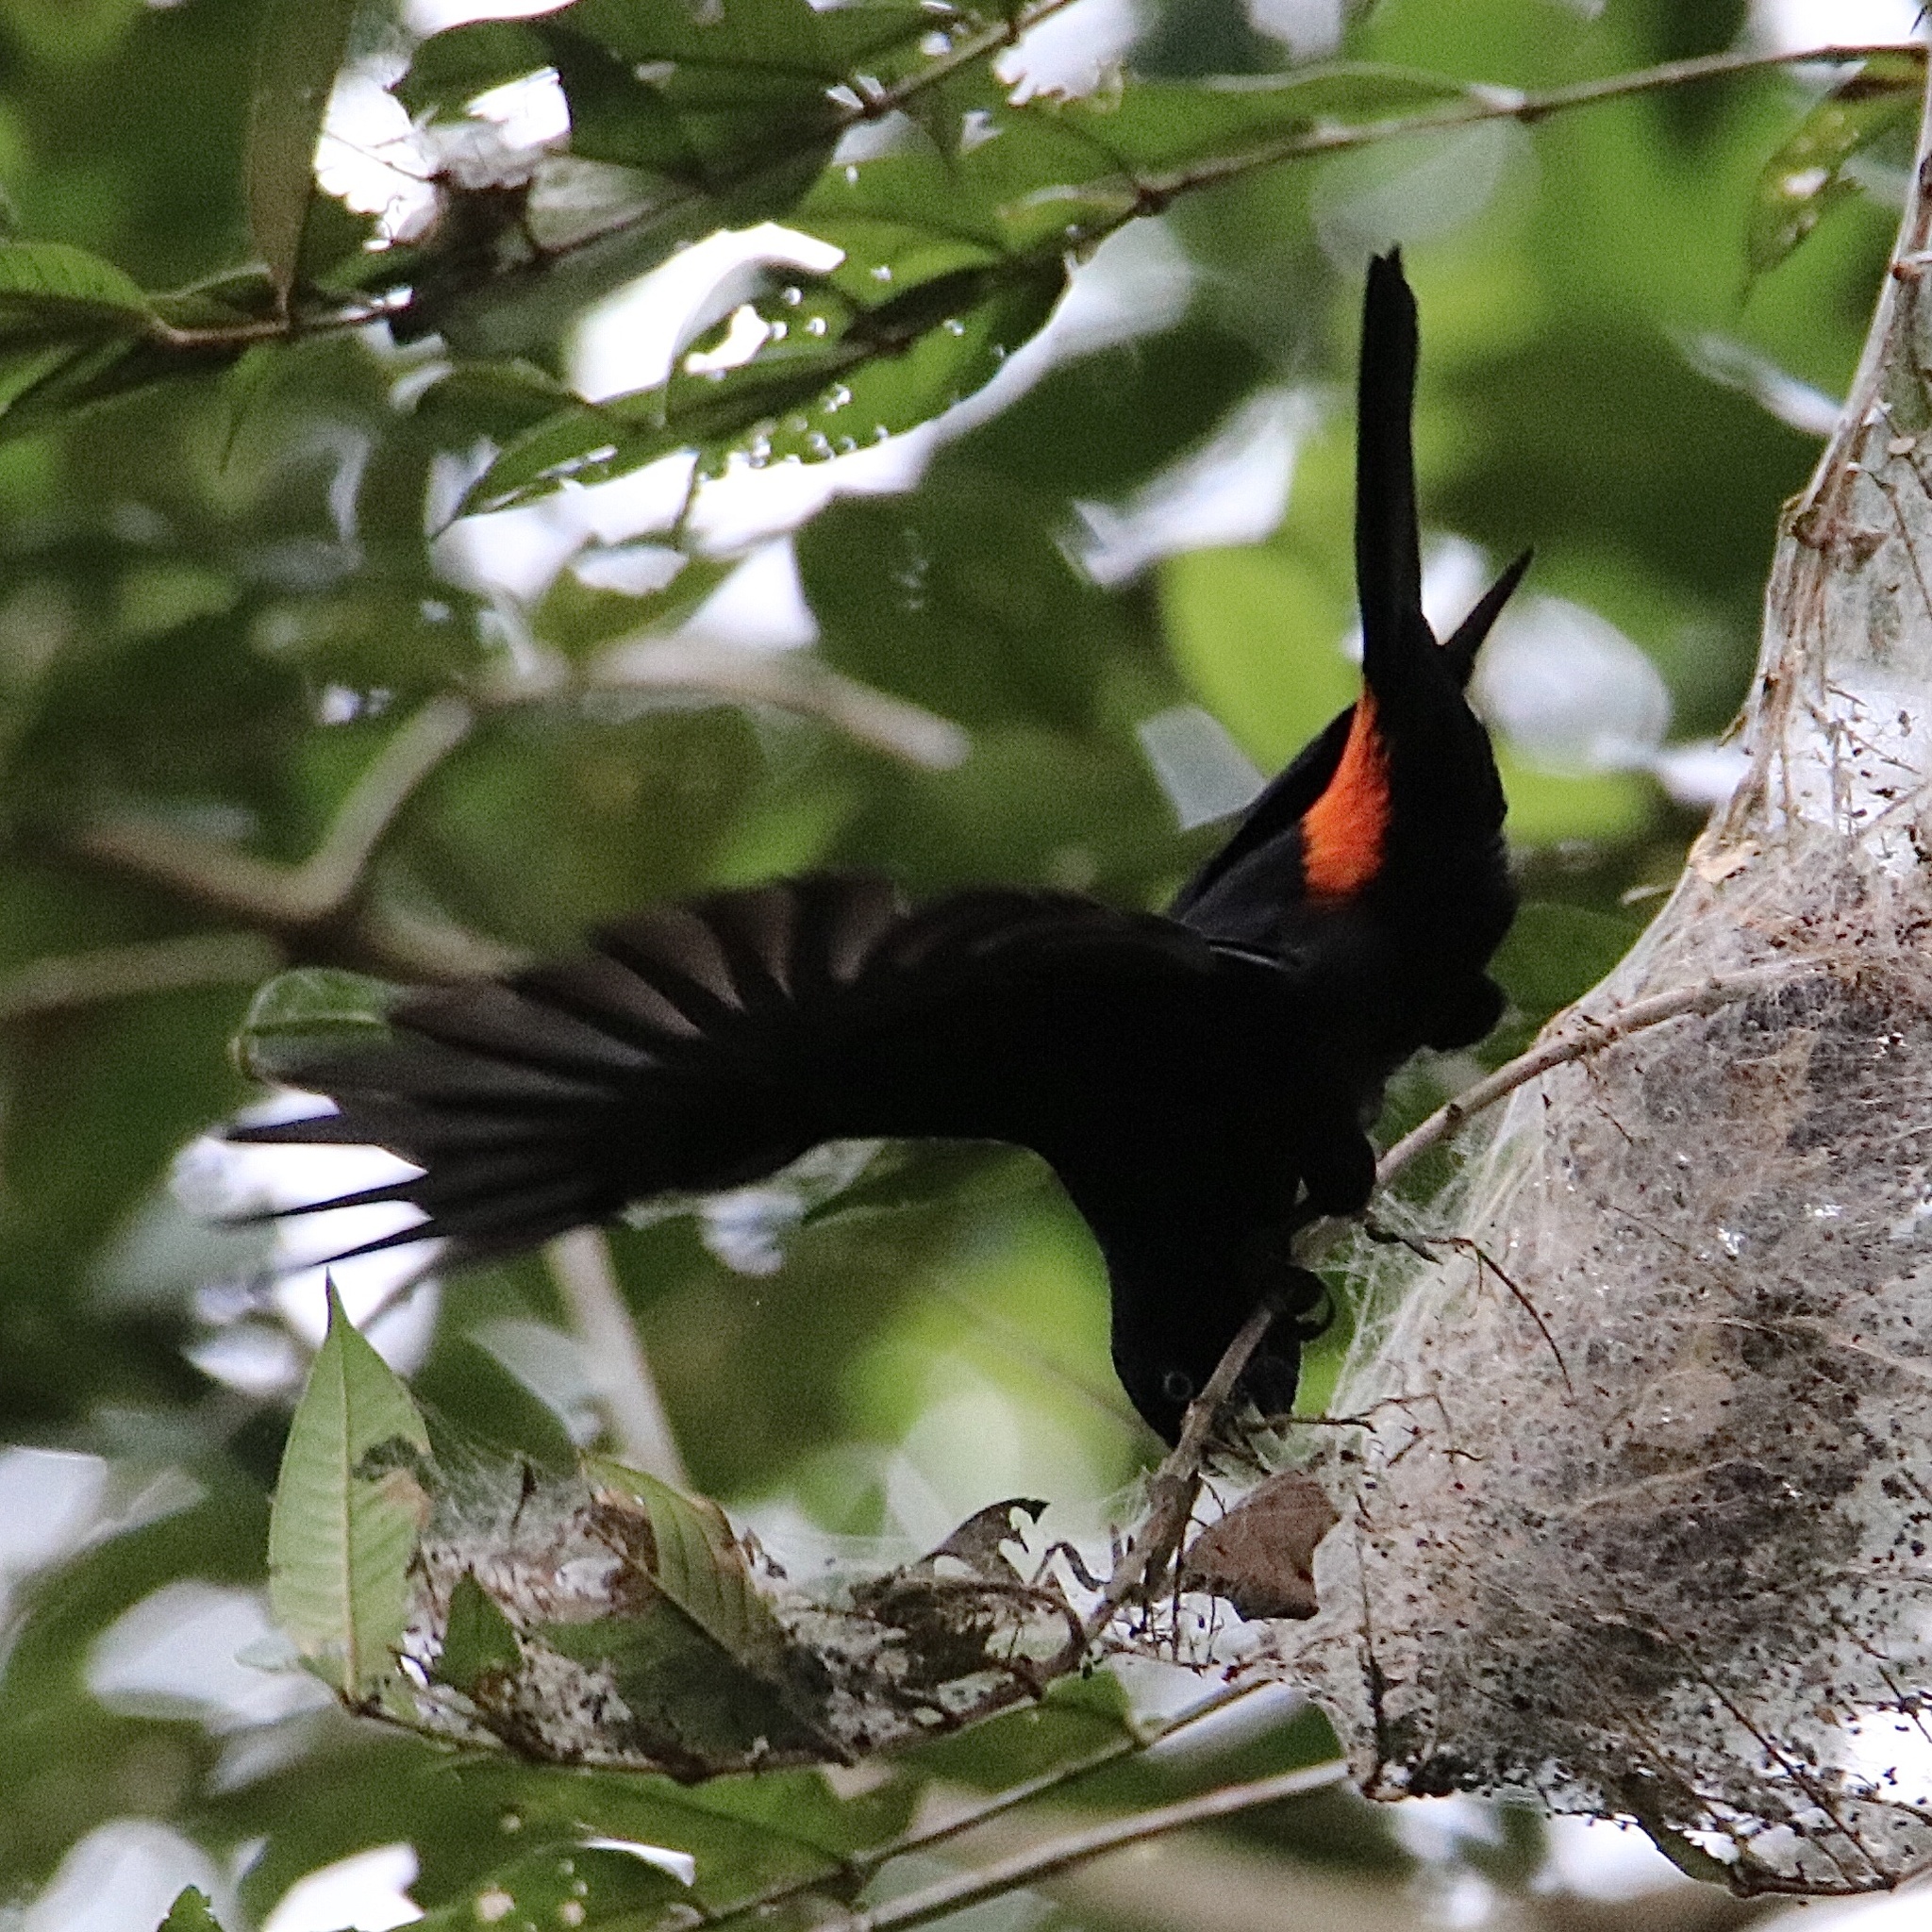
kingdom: Animalia
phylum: Chordata
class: Aves
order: Passeriformes
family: Icteridae
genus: Cacicus
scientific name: Cacicus uropygialis
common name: Scarlet-rumped cacique
